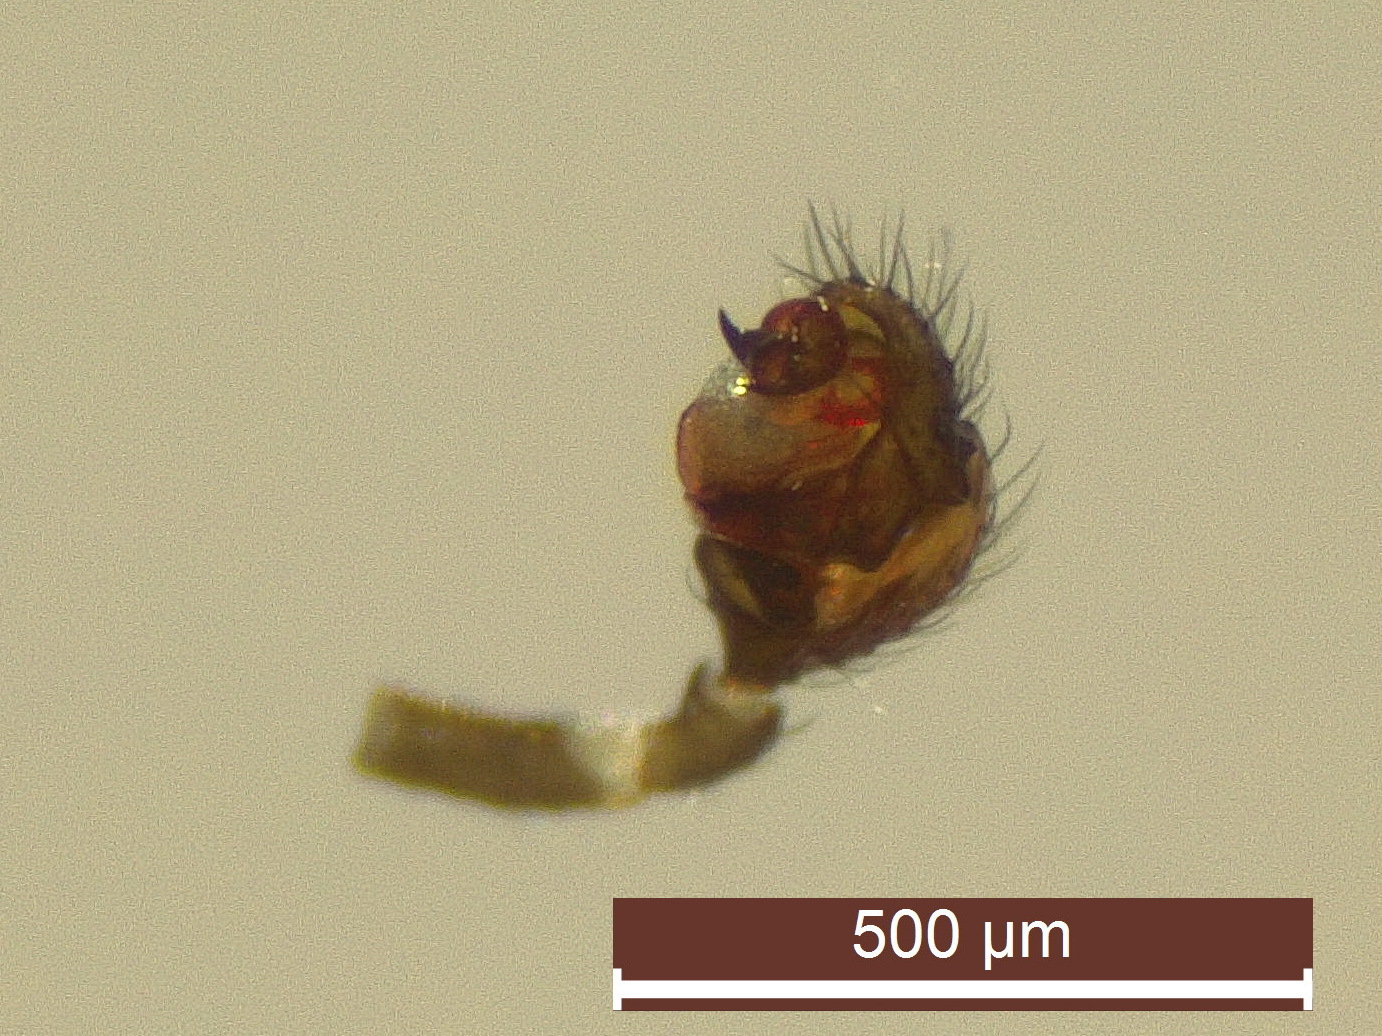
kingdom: Animalia
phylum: Arthropoda
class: Arachnida
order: Araneae
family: Linyphiidae
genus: Erigonella
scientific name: Erigonella hiemalis
